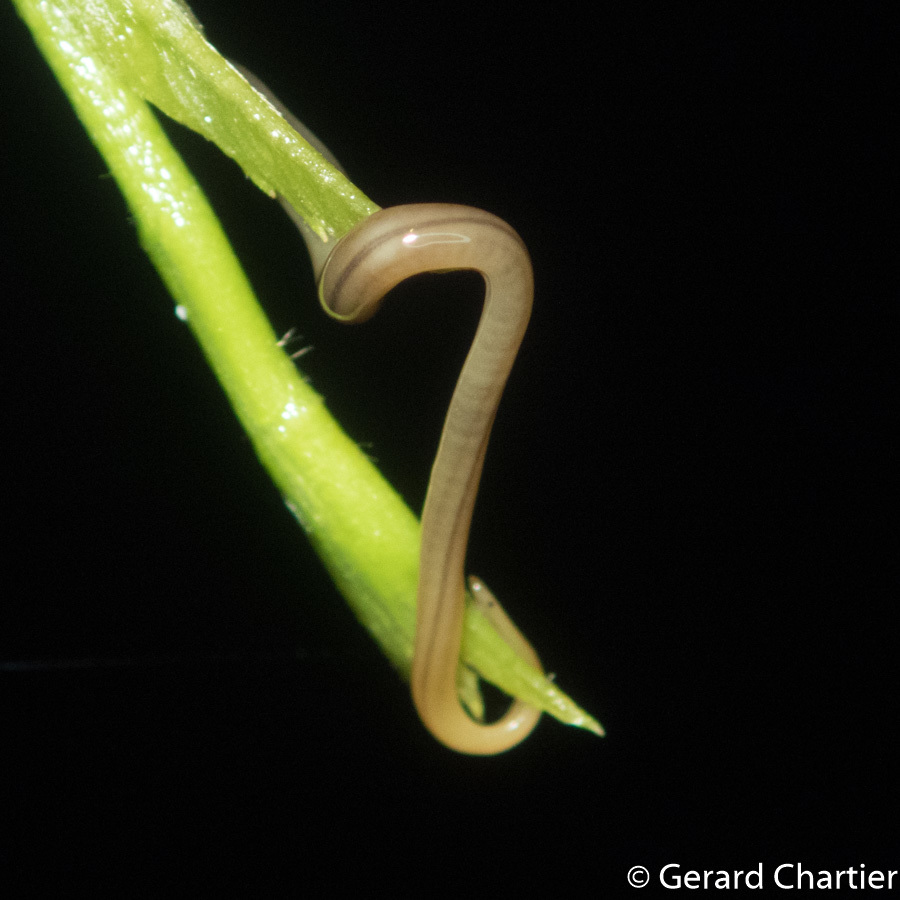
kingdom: Animalia
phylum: Platyhelminthes
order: Tricladida
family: Rhynchodemidae
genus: Desmorhynchus
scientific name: Desmorhynchus ochroleucus
